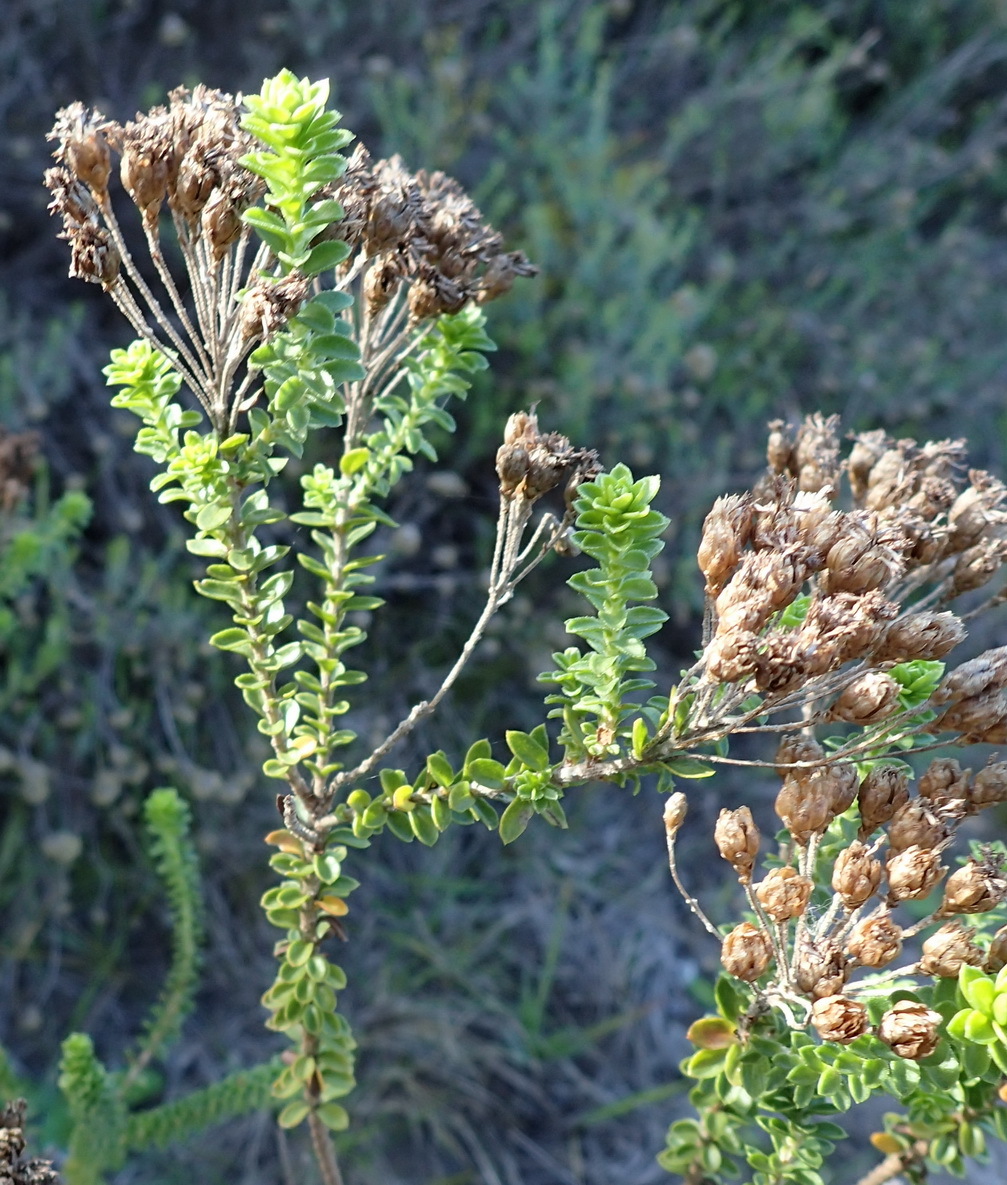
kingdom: Plantae
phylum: Tracheophyta
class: Magnoliopsida
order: Asterales
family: Asteraceae
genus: Athanasia
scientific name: Athanasia quinquedentata
